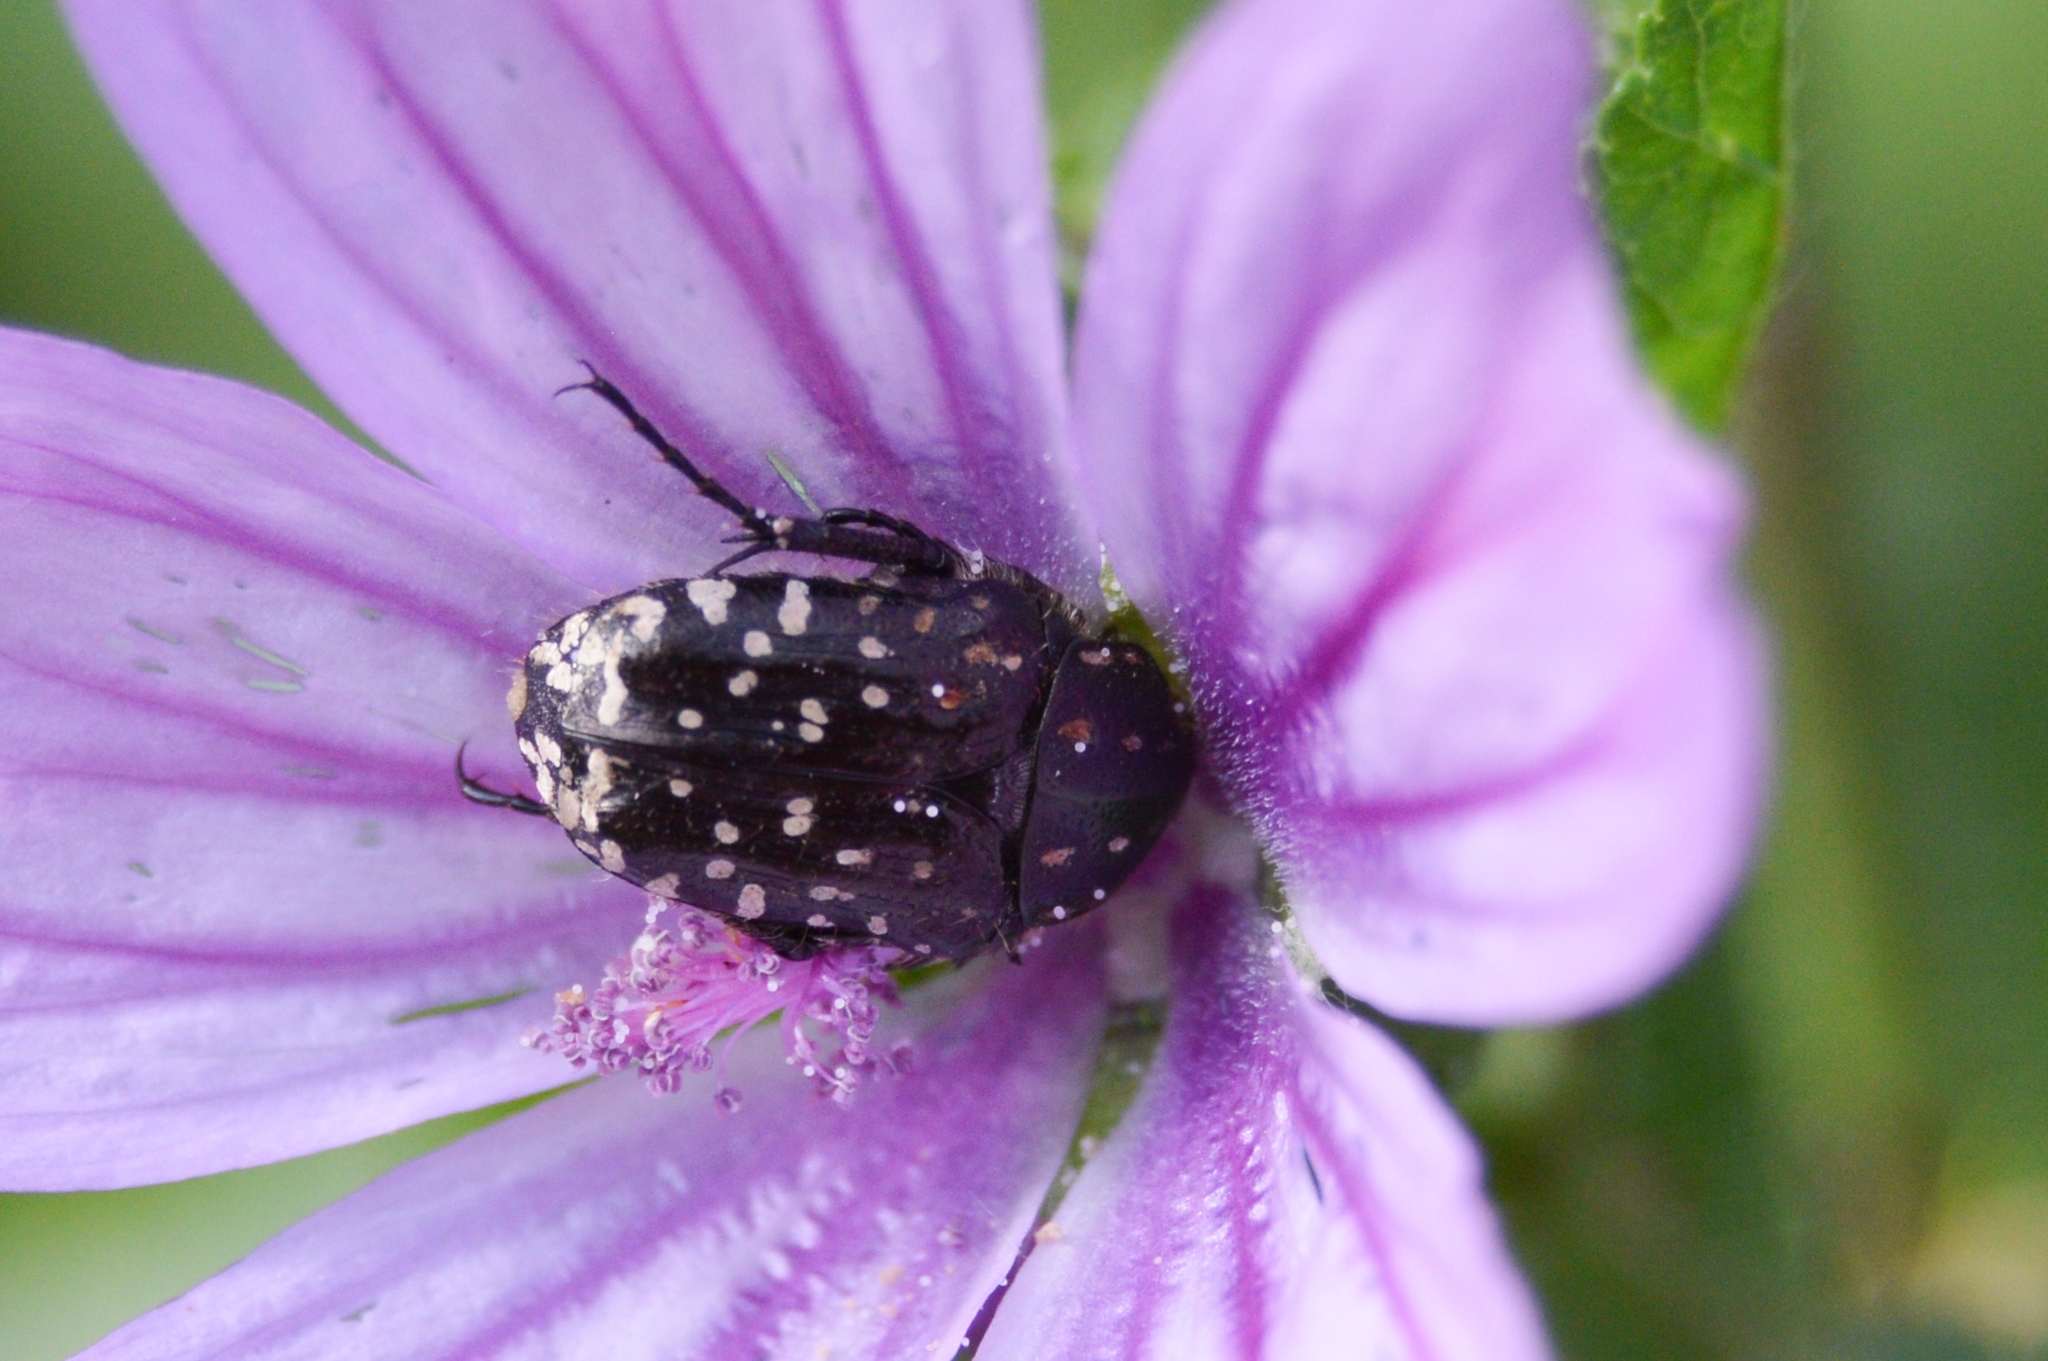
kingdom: Animalia
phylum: Arthropoda
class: Insecta
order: Coleoptera
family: Scarabaeidae
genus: Oxythyrea
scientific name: Oxythyrea funesta
